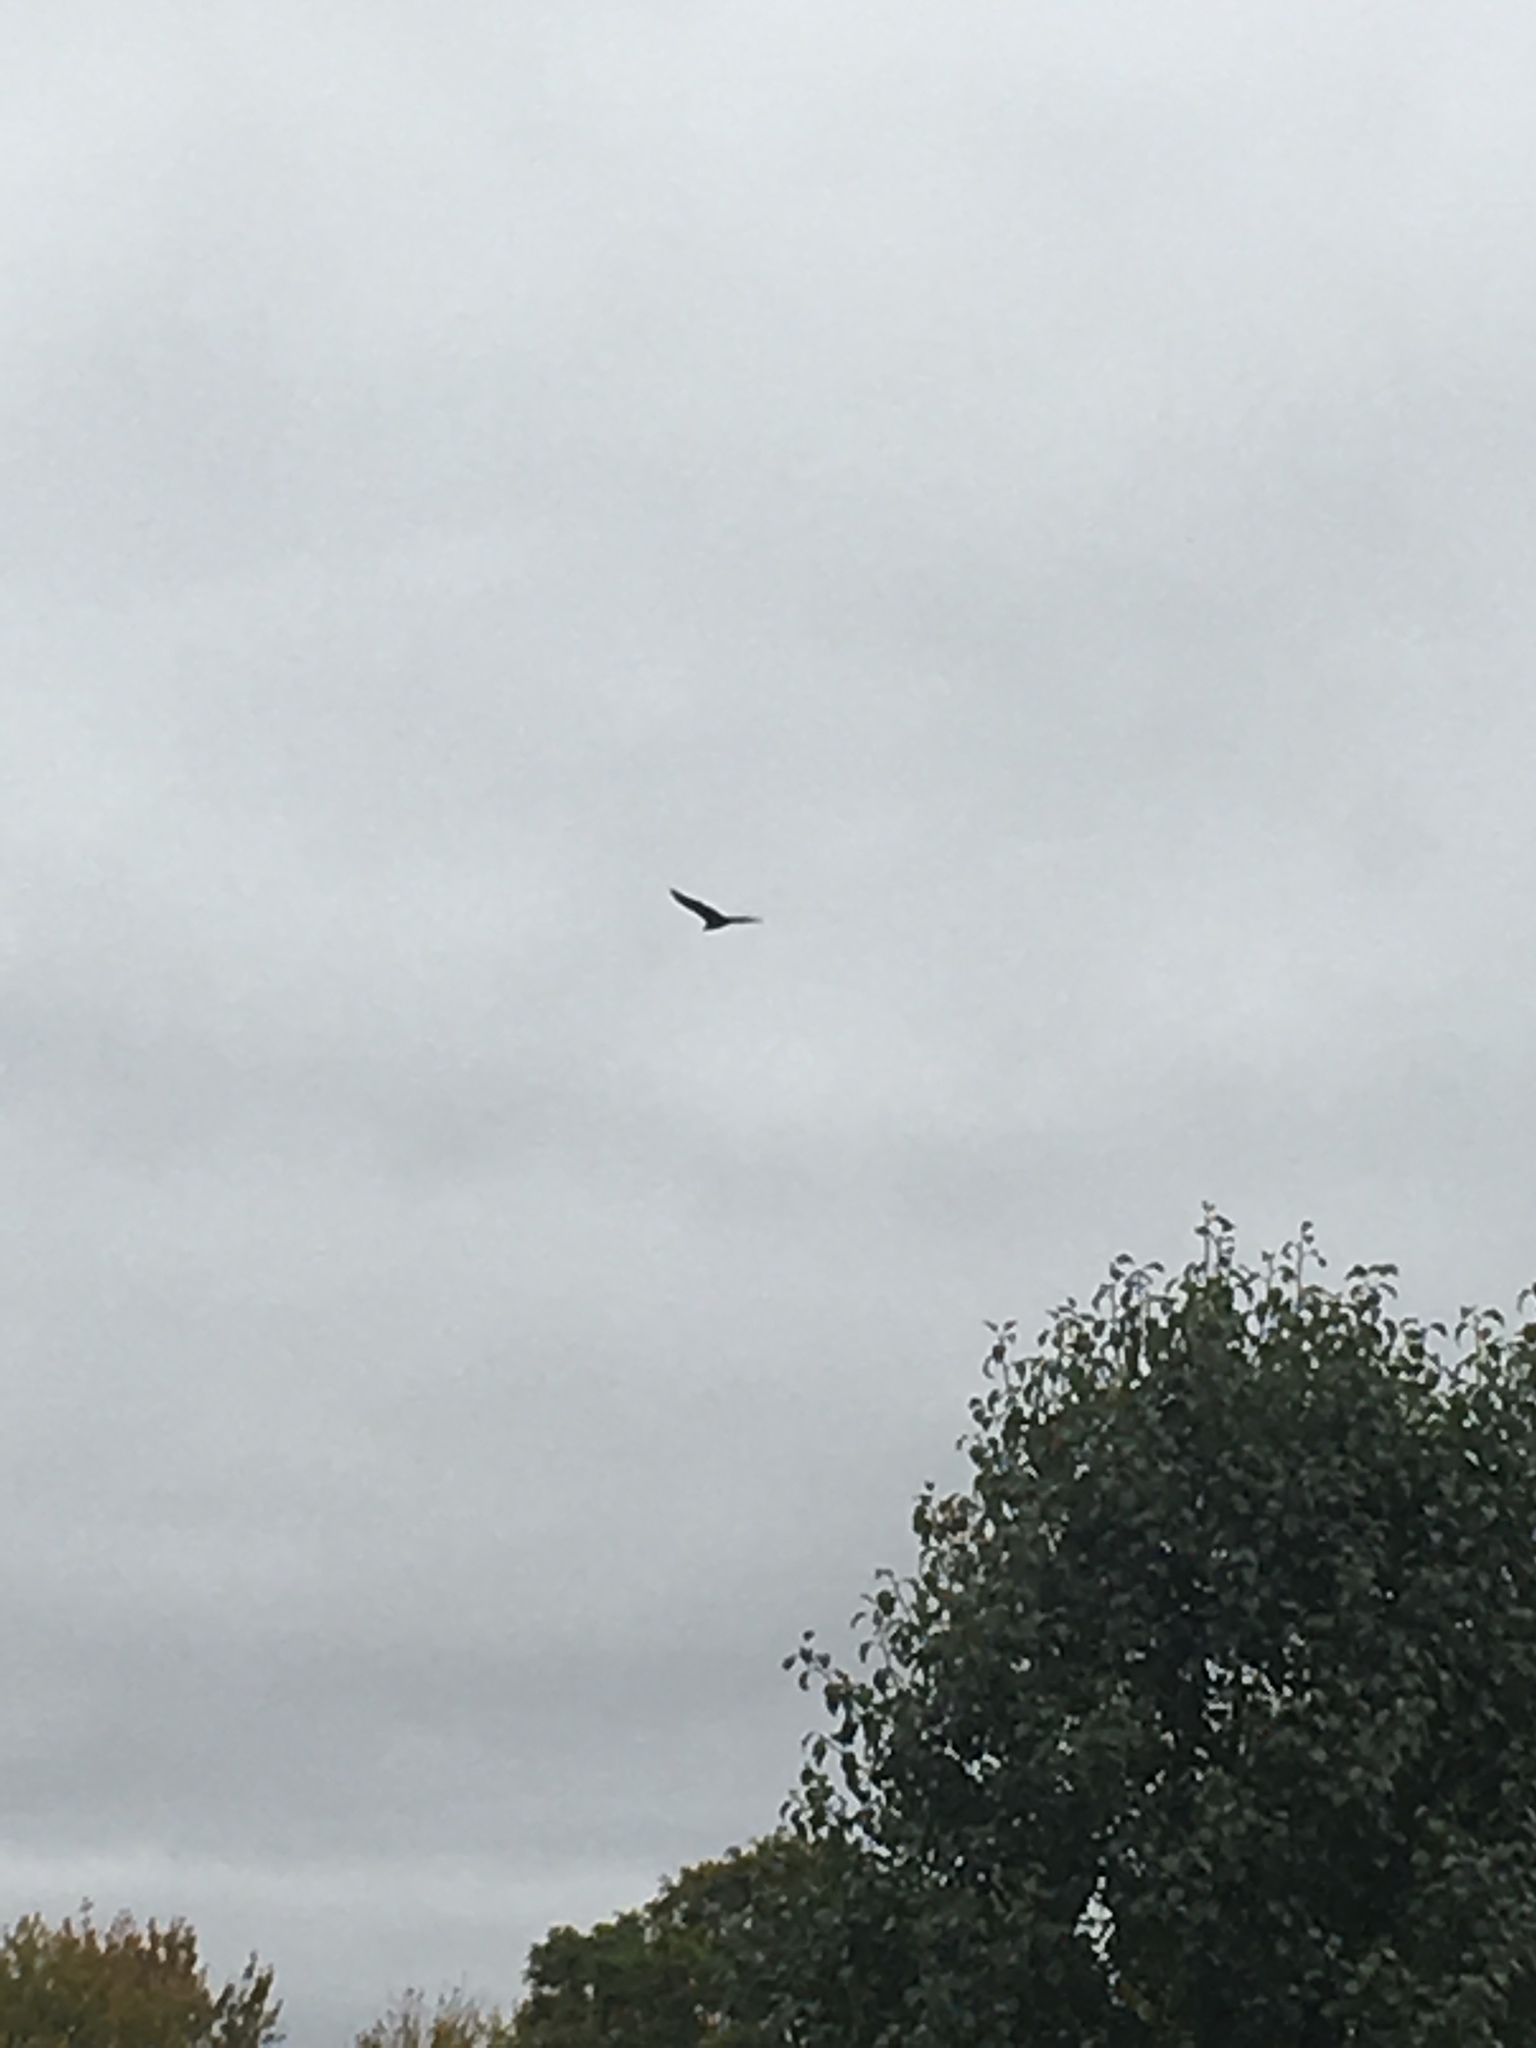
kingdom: Animalia
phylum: Chordata
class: Aves
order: Accipitriformes
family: Cathartidae
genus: Cathartes
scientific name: Cathartes aura
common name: Turkey vulture
